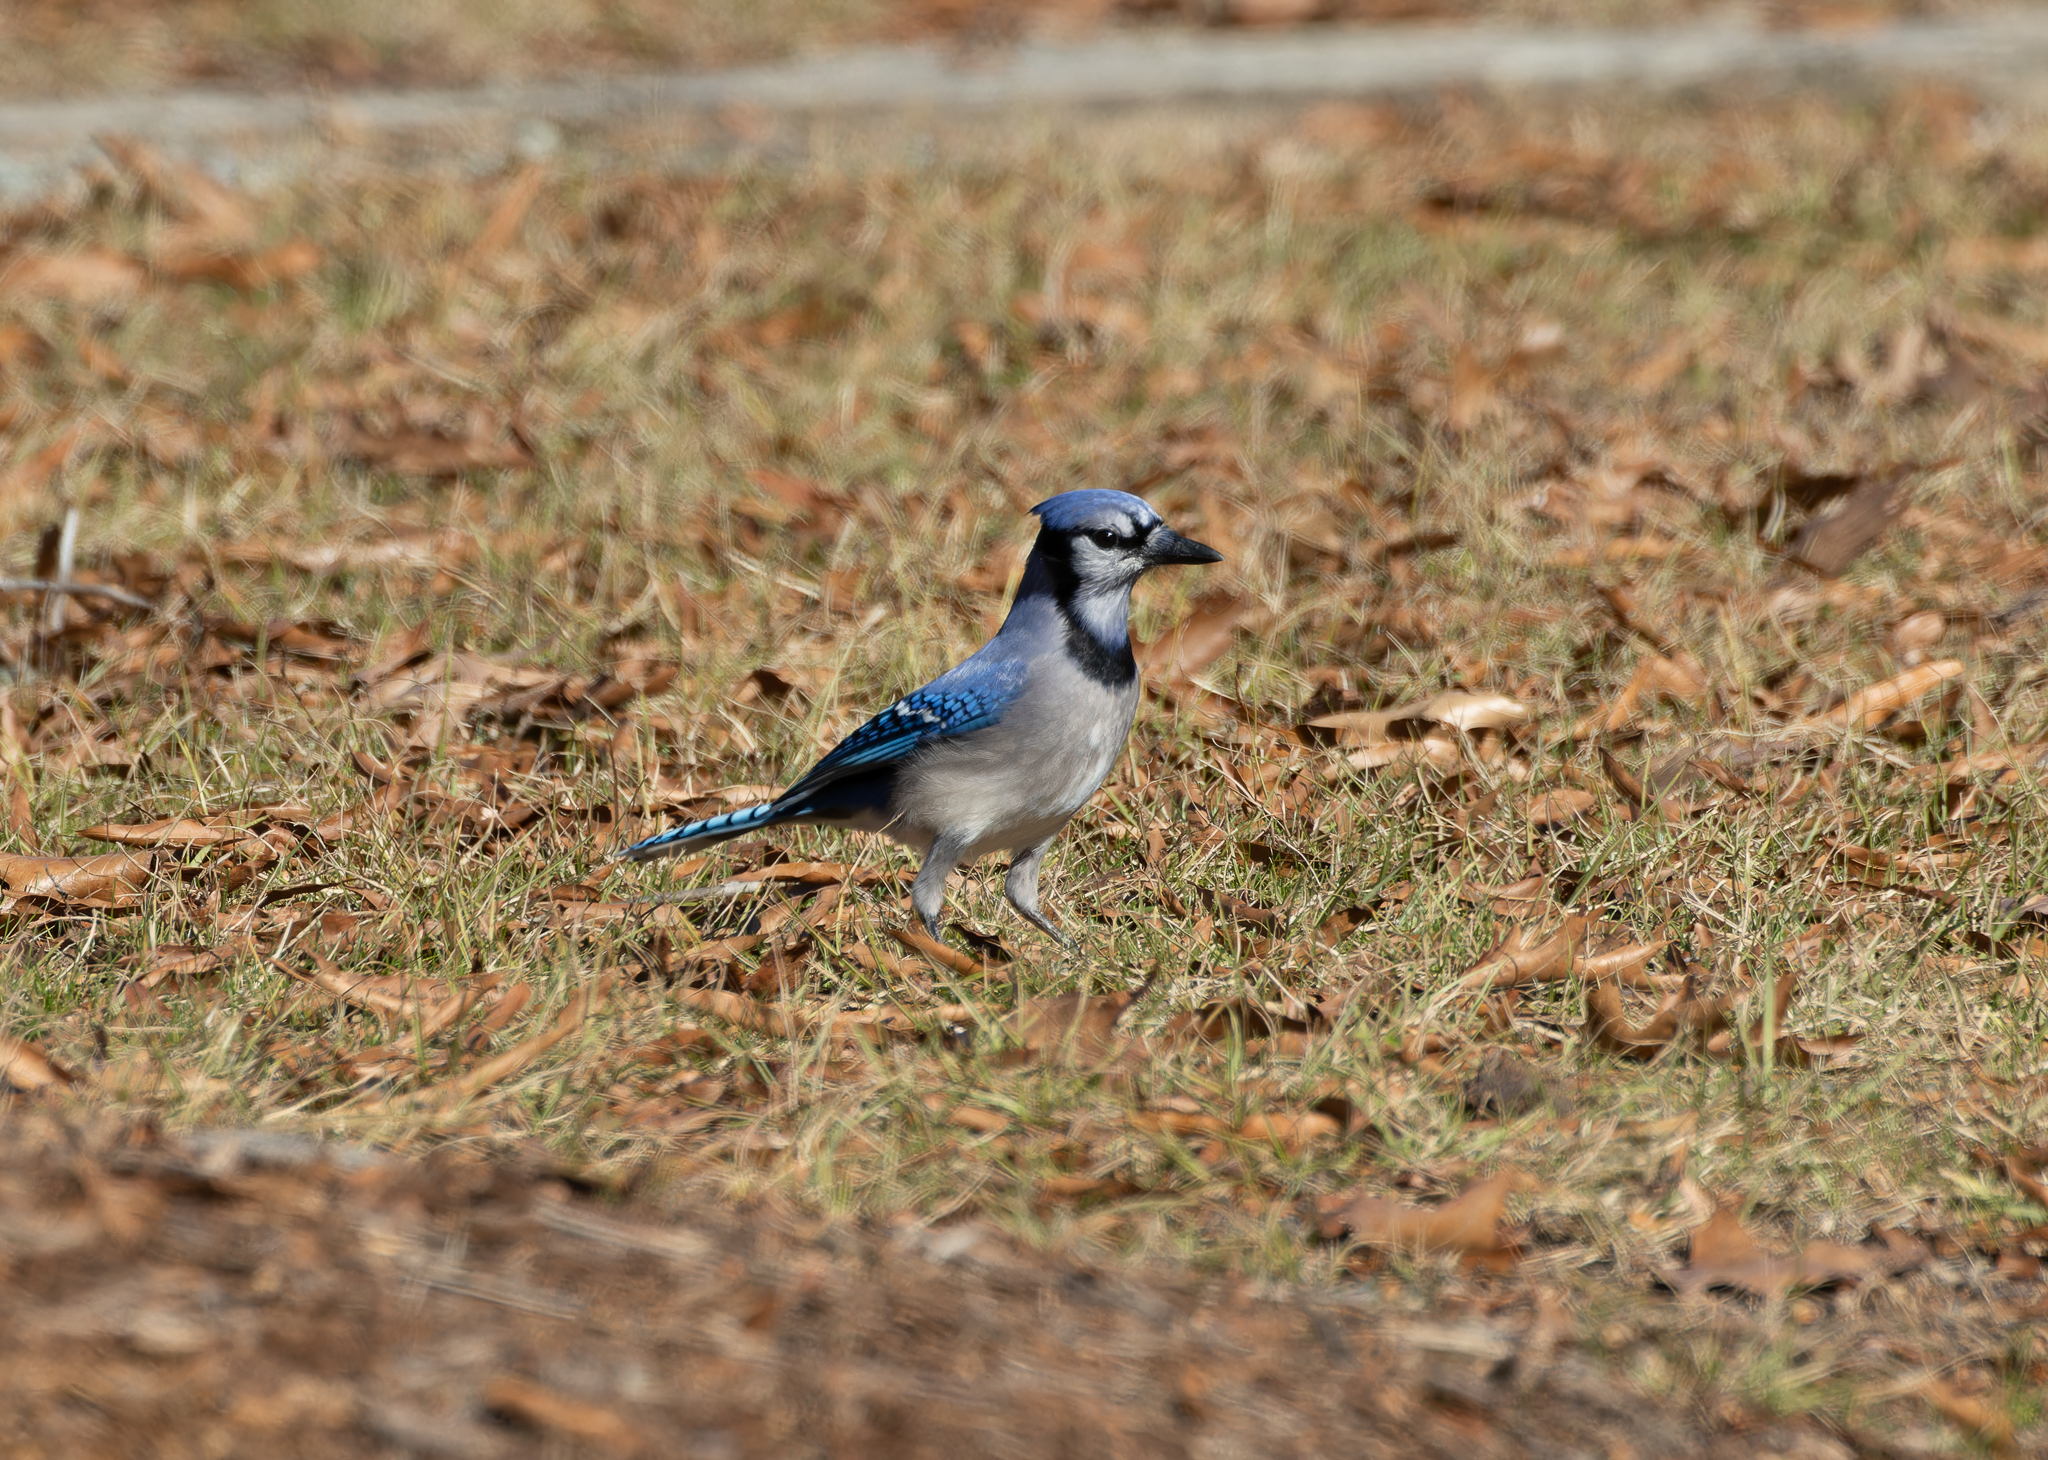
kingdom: Animalia
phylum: Chordata
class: Aves
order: Passeriformes
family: Corvidae
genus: Cyanocitta
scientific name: Cyanocitta cristata
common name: Blue jay
